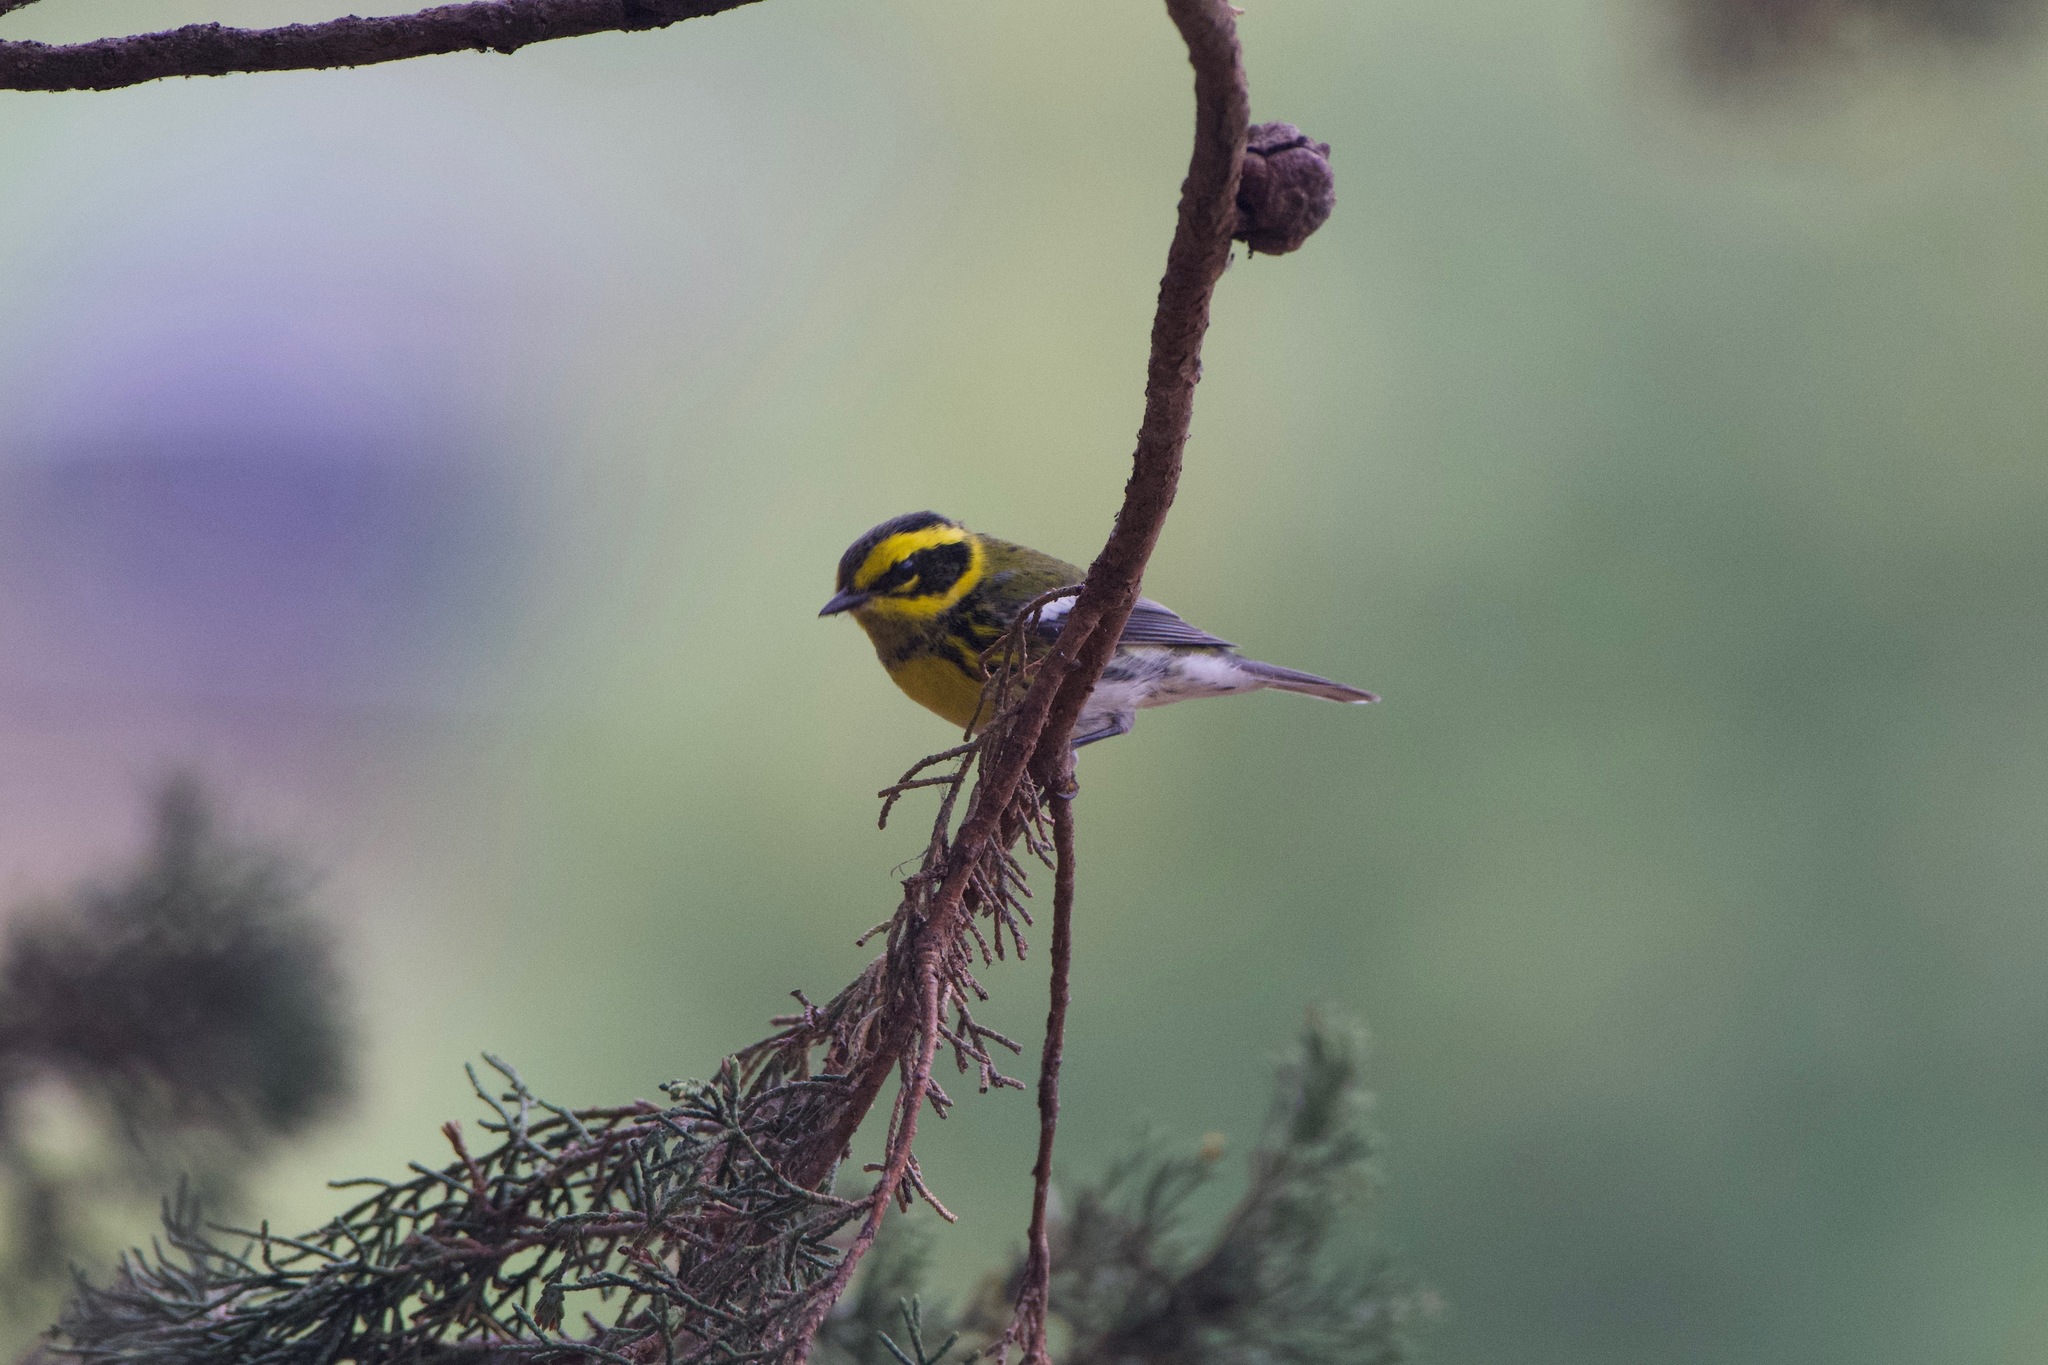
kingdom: Animalia
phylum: Chordata
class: Aves
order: Passeriformes
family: Parulidae
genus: Setophaga
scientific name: Setophaga townsendi
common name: Townsend's warbler
